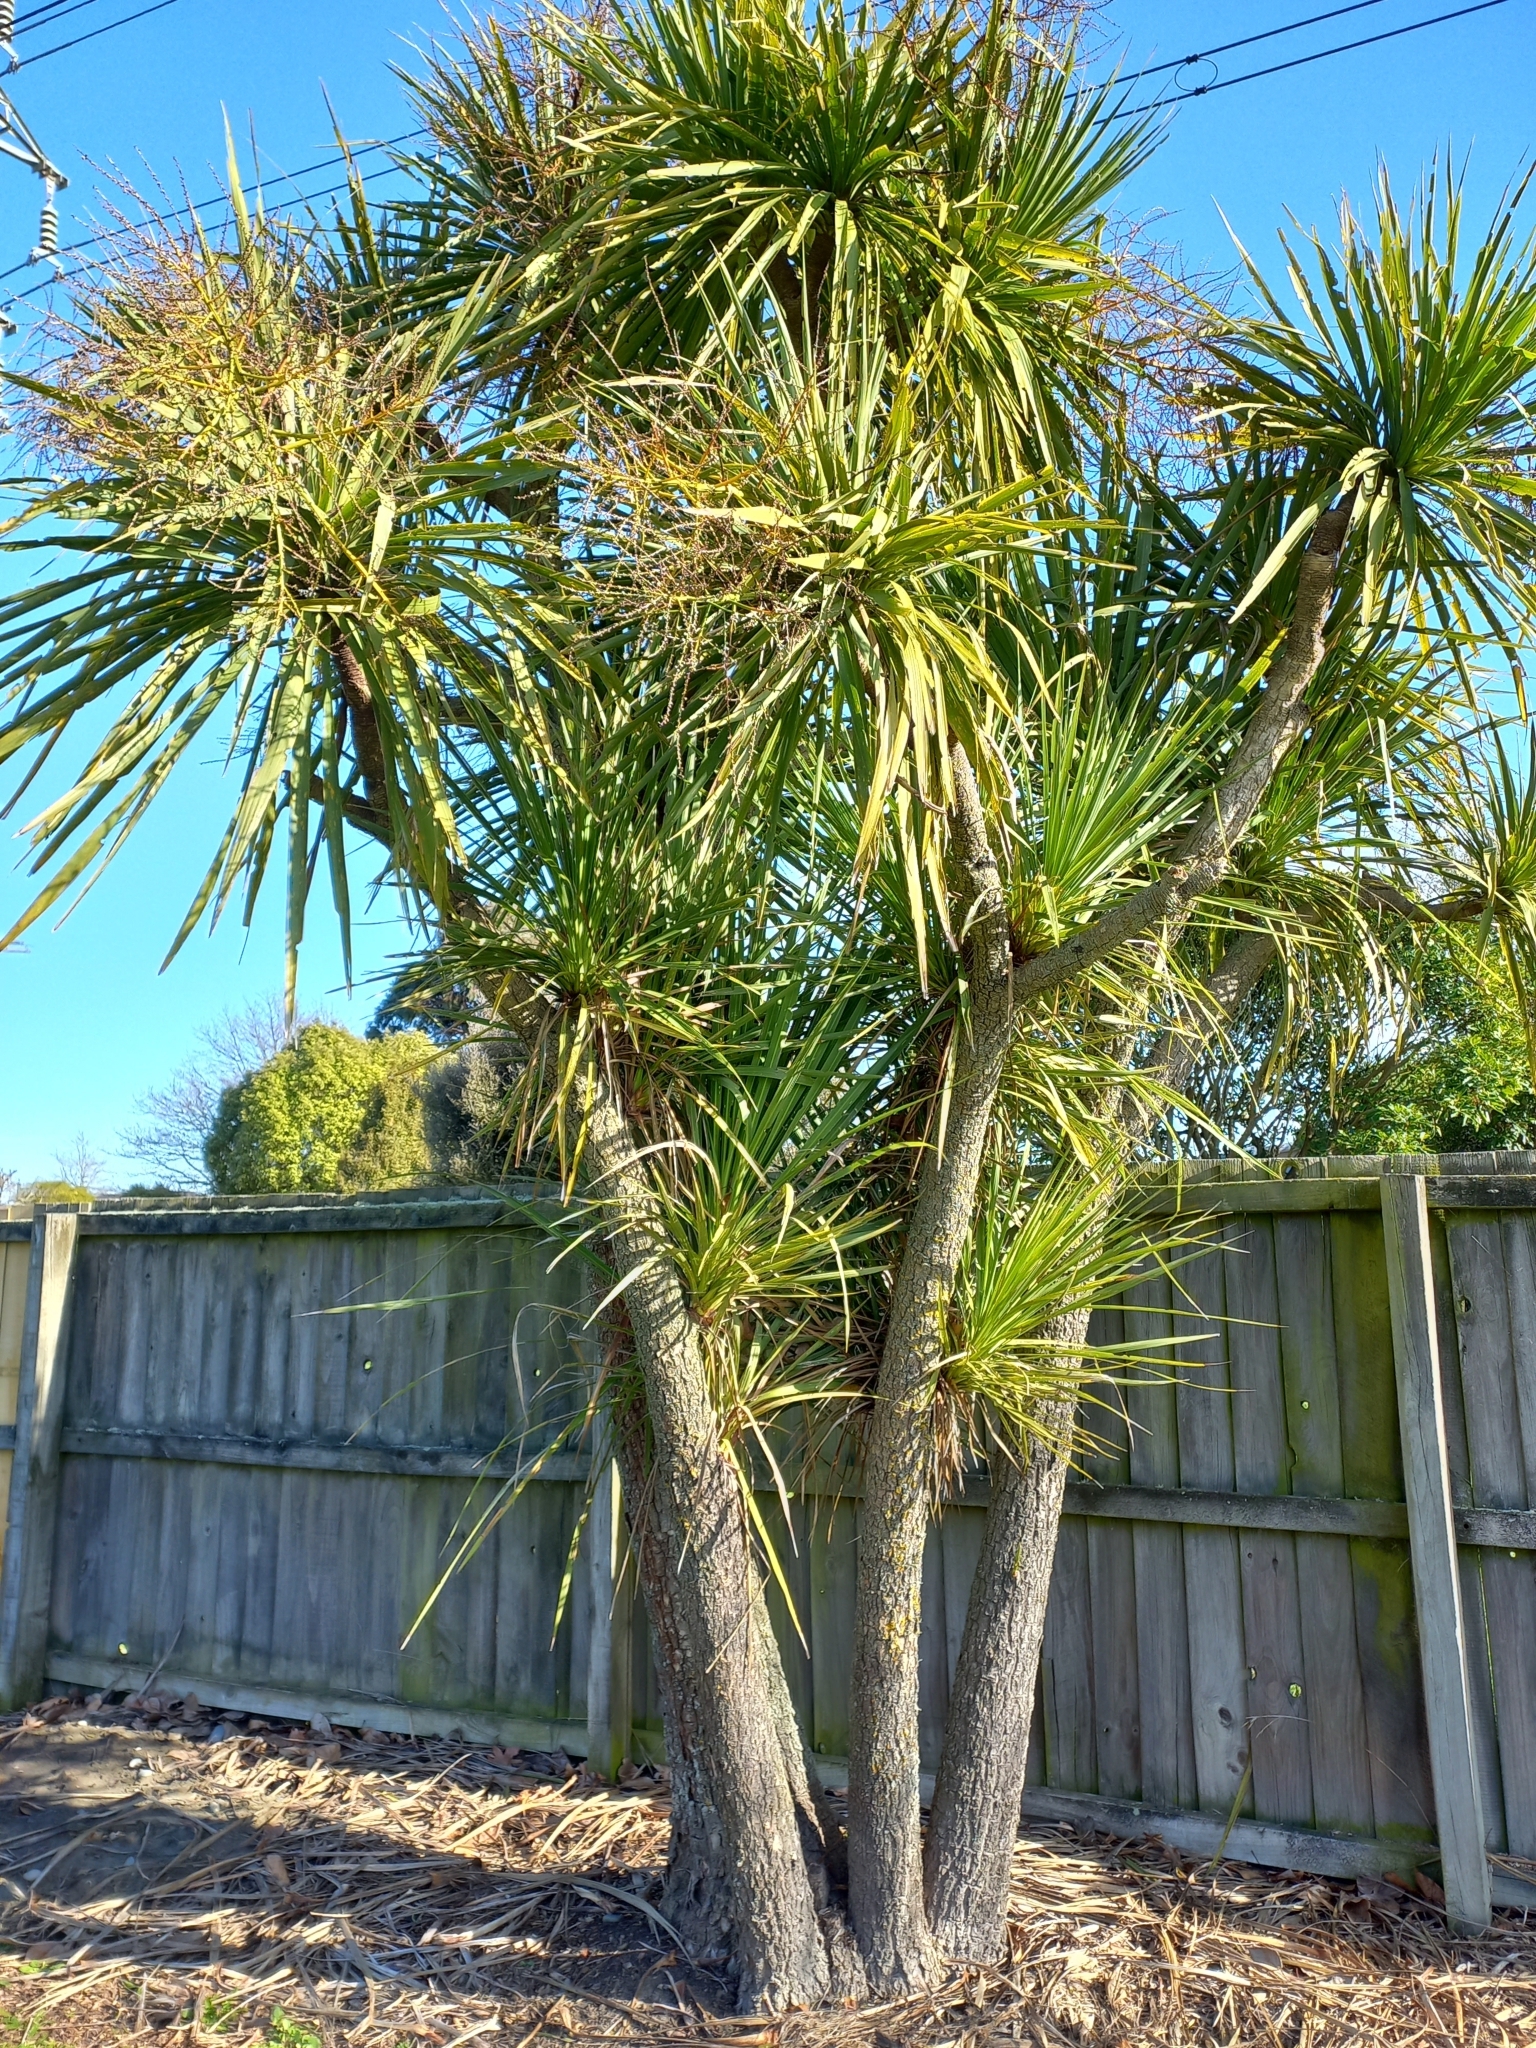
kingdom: Plantae
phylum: Tracheophyta
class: Liliopsida
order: Asparagales
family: Asparagaceae
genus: Cordyline
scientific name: Cordyline australis
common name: Cabbage-palm
